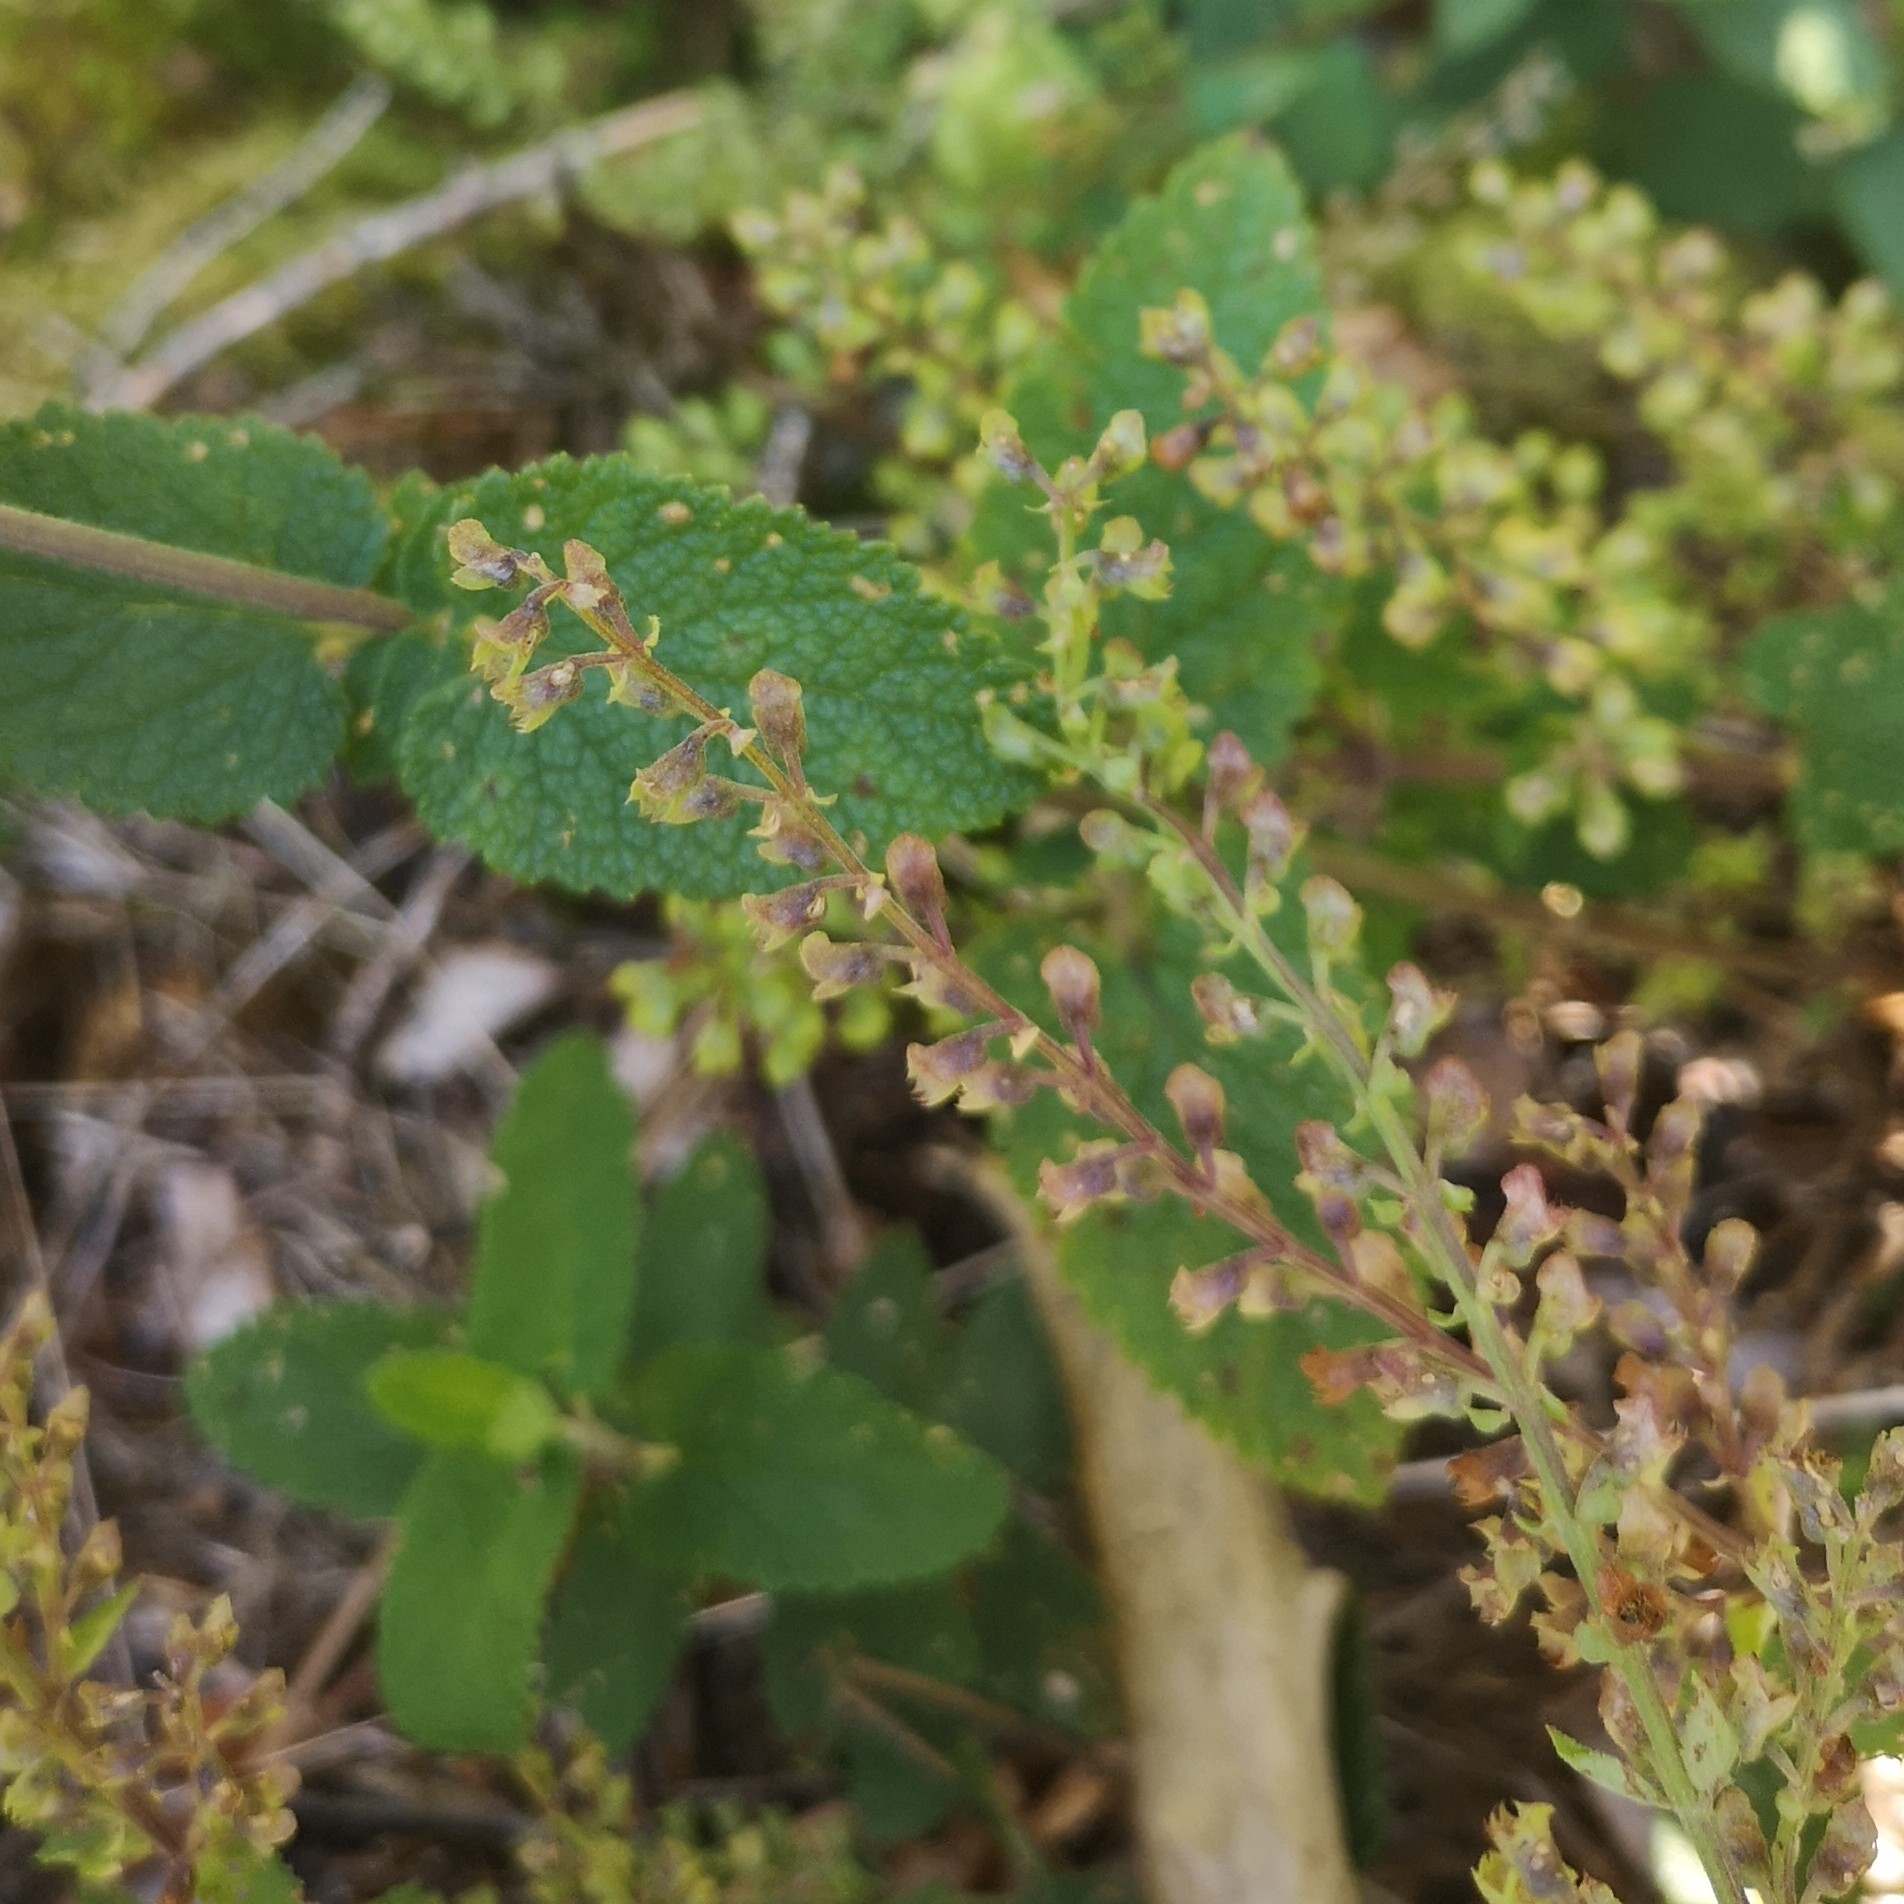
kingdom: Plantae
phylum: Tracheophyta
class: Magnoliopsida
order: Lamiales
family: Lamiaceae
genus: Teucrium
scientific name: Teucrium scorodonia
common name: Woodland germander
